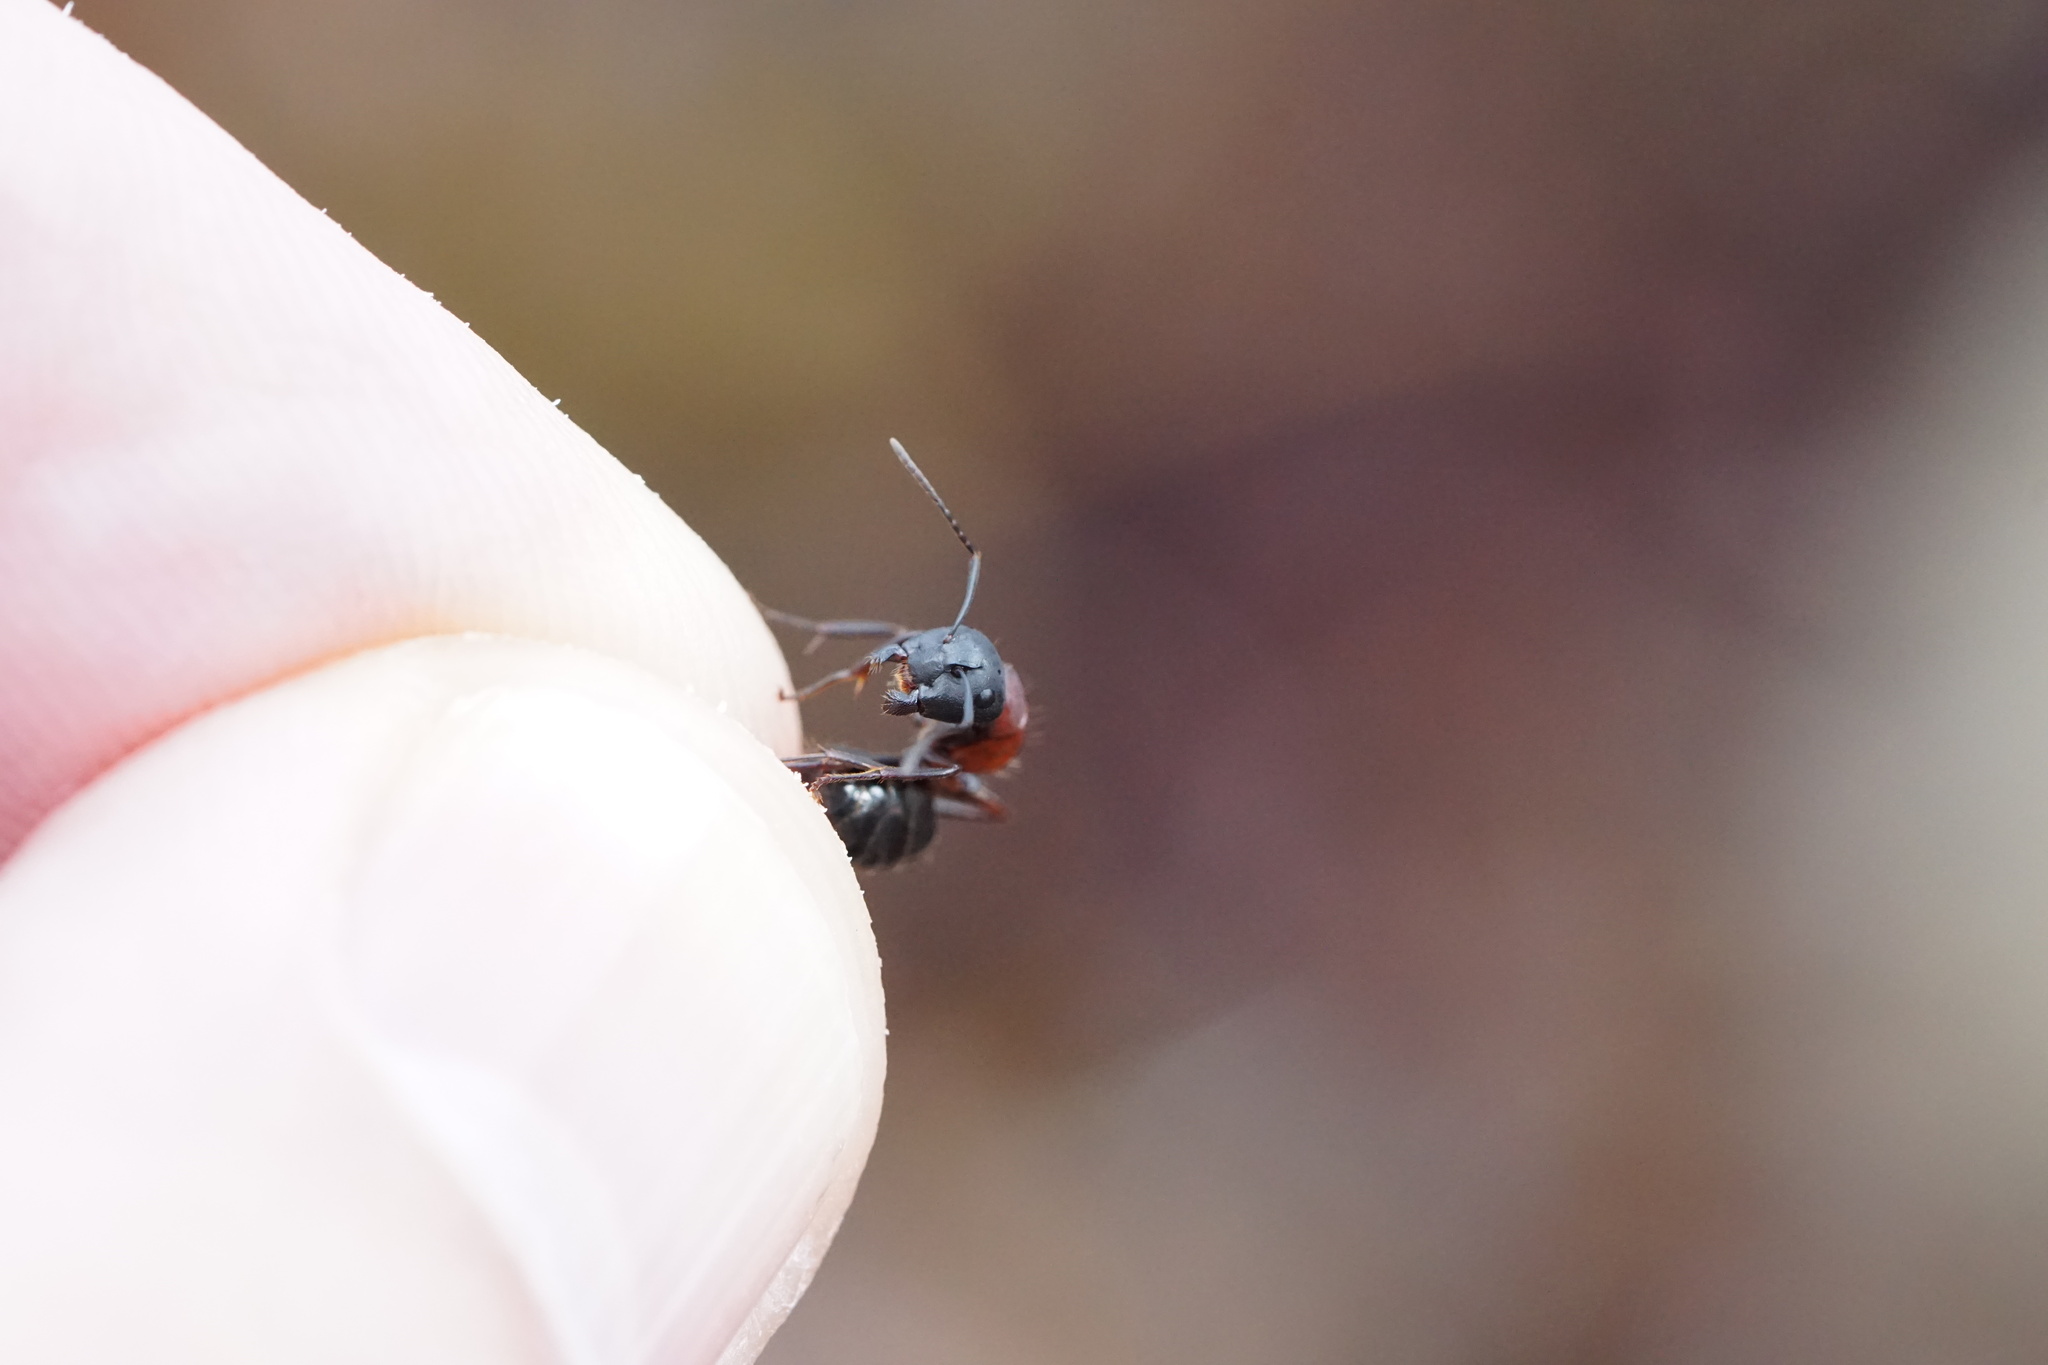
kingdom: Animalia
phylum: Arthropoda
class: Insecta
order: Hymenoptera
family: Formicidae
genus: Camponotus
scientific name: Camponotus novaeboracensis
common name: New york carpenter ant
